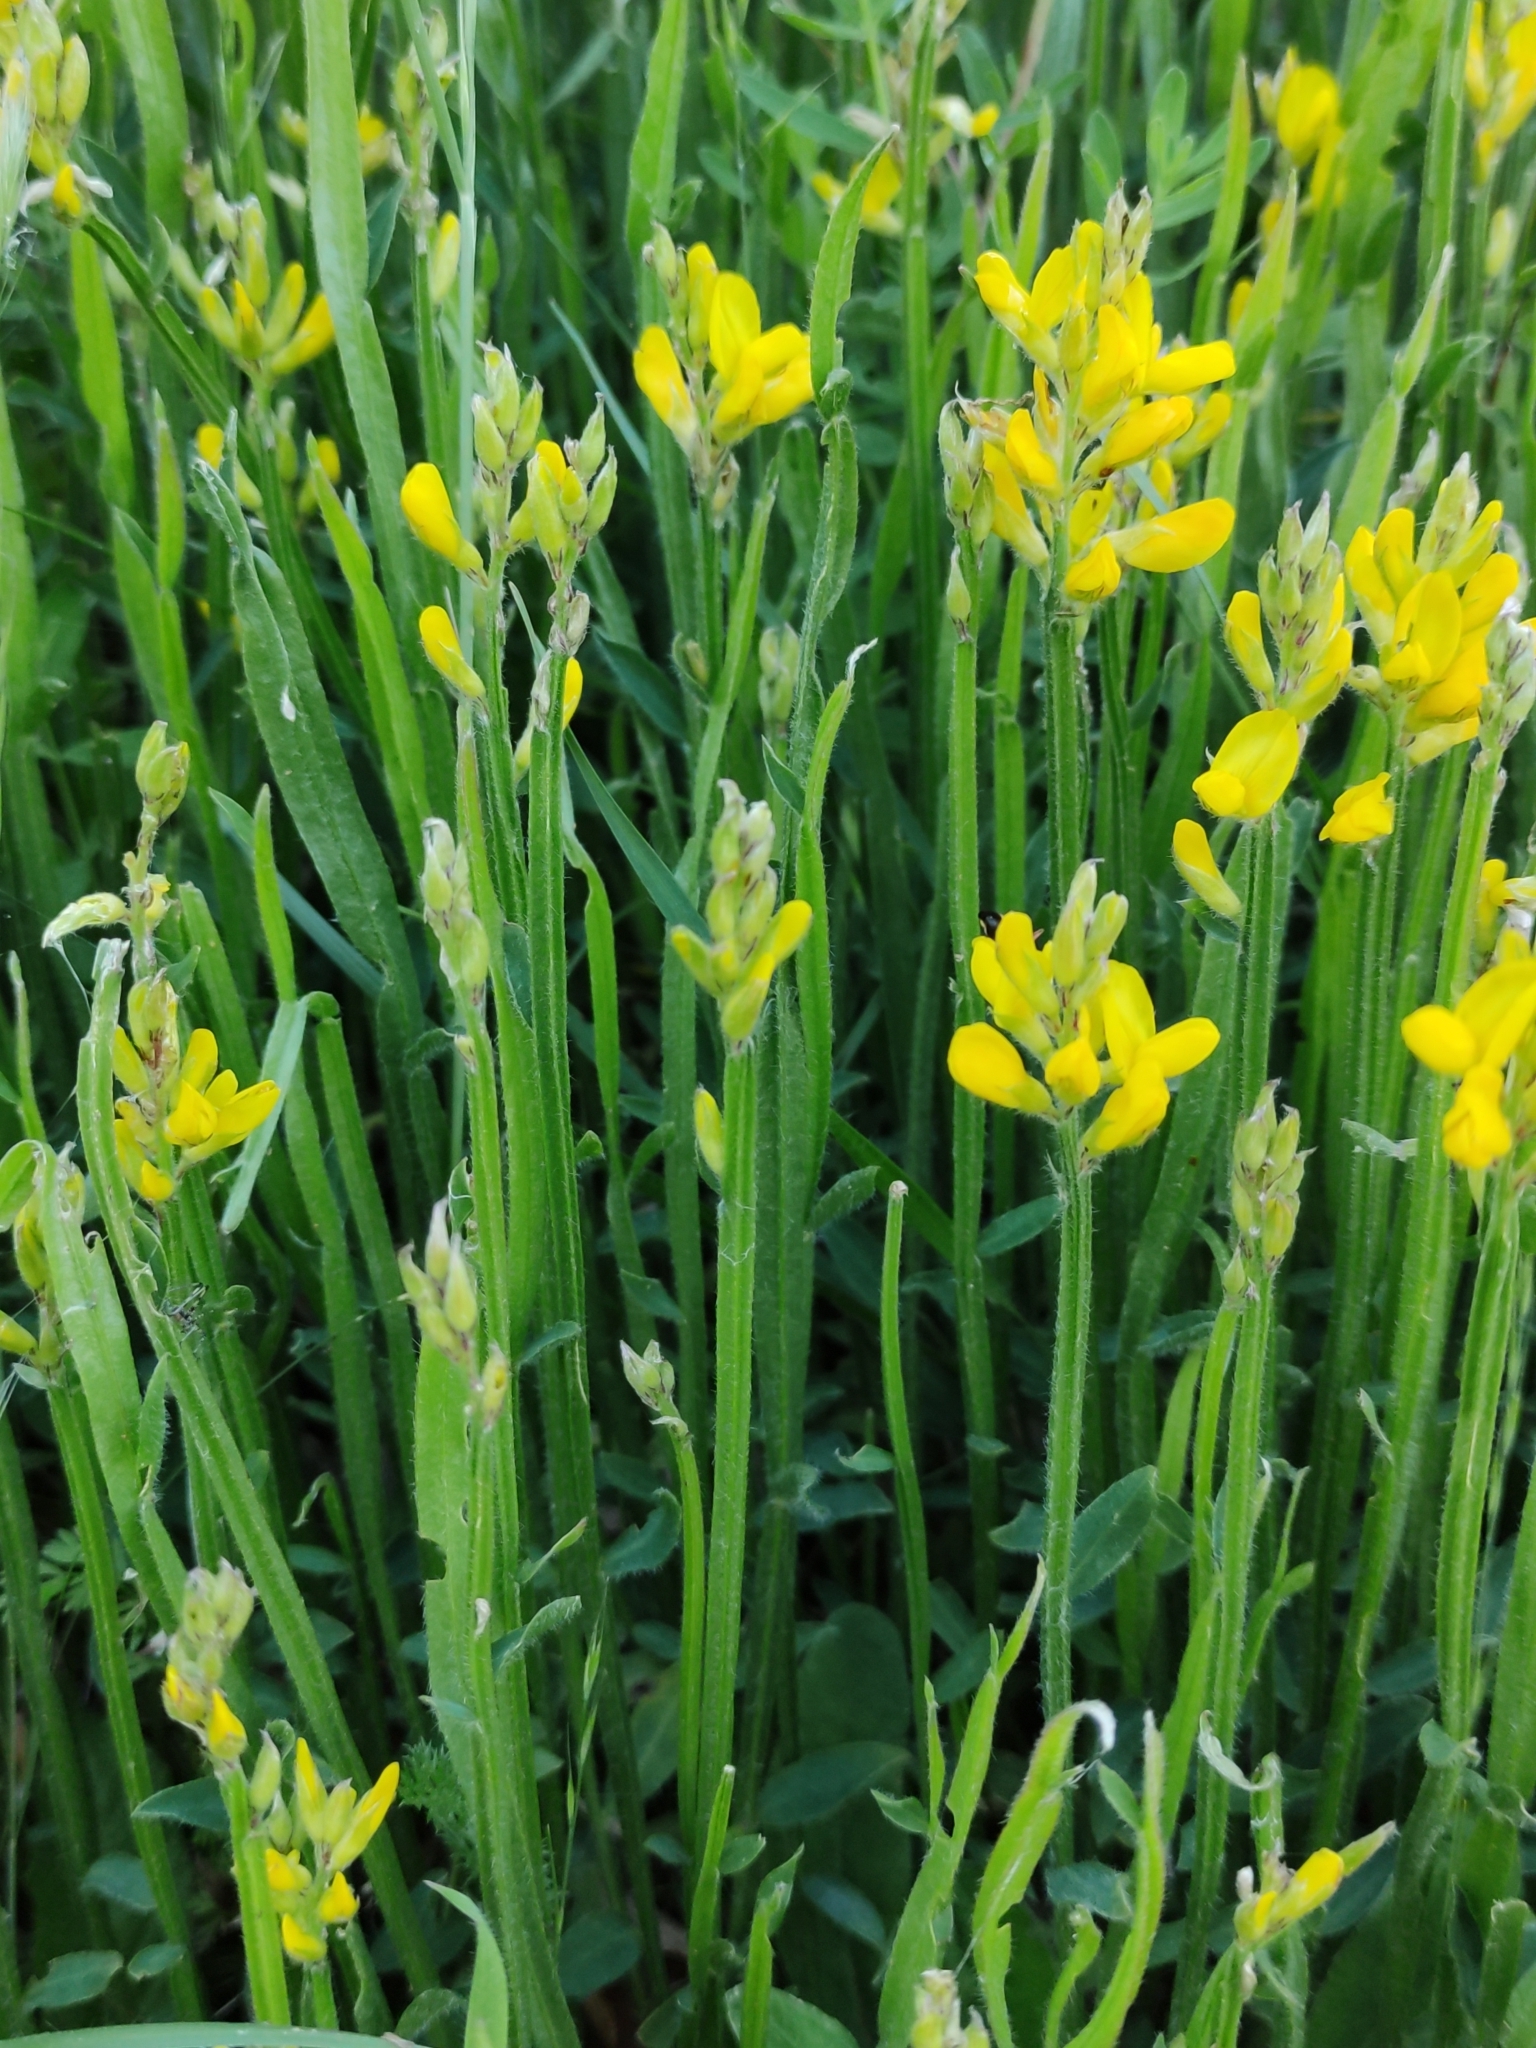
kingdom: Plantae
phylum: Tracheophyta
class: Magnoliopsida
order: Fabales
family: Fabaceae
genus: Genista
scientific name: Genista sagittalis
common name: Winged greenweed
